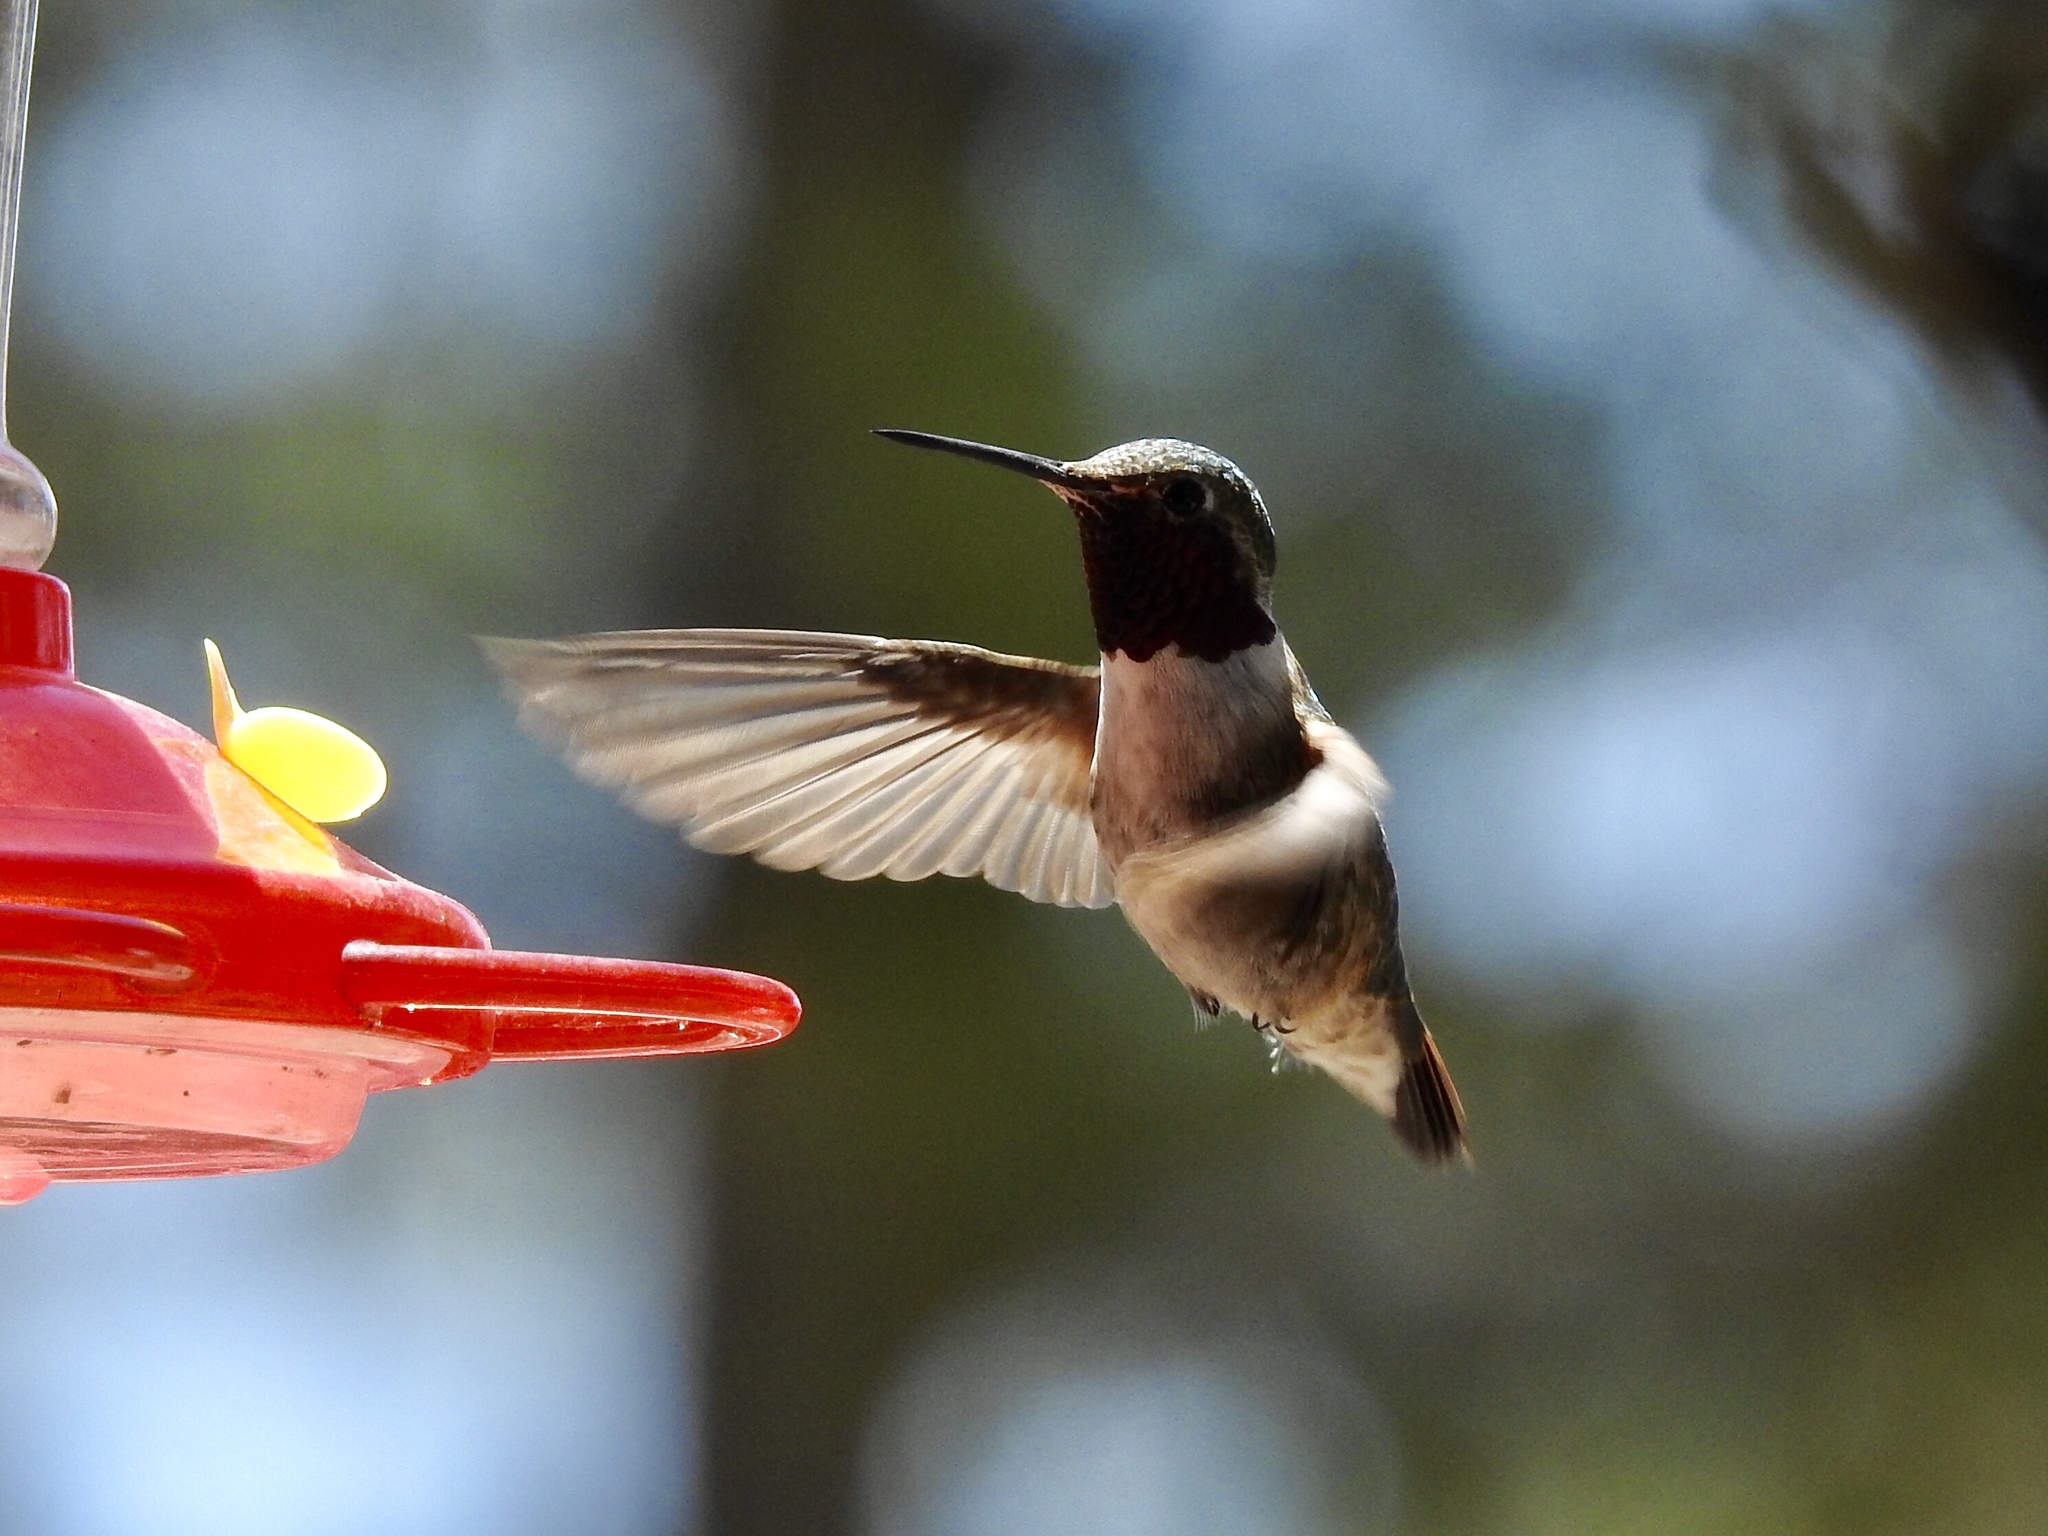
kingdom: Animalia
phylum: Chordata
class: Aves
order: Apodiformes
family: Trochilidae
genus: Selasphorus
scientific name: Selasphorus platycercus
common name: Broad-tailed hummingbird
